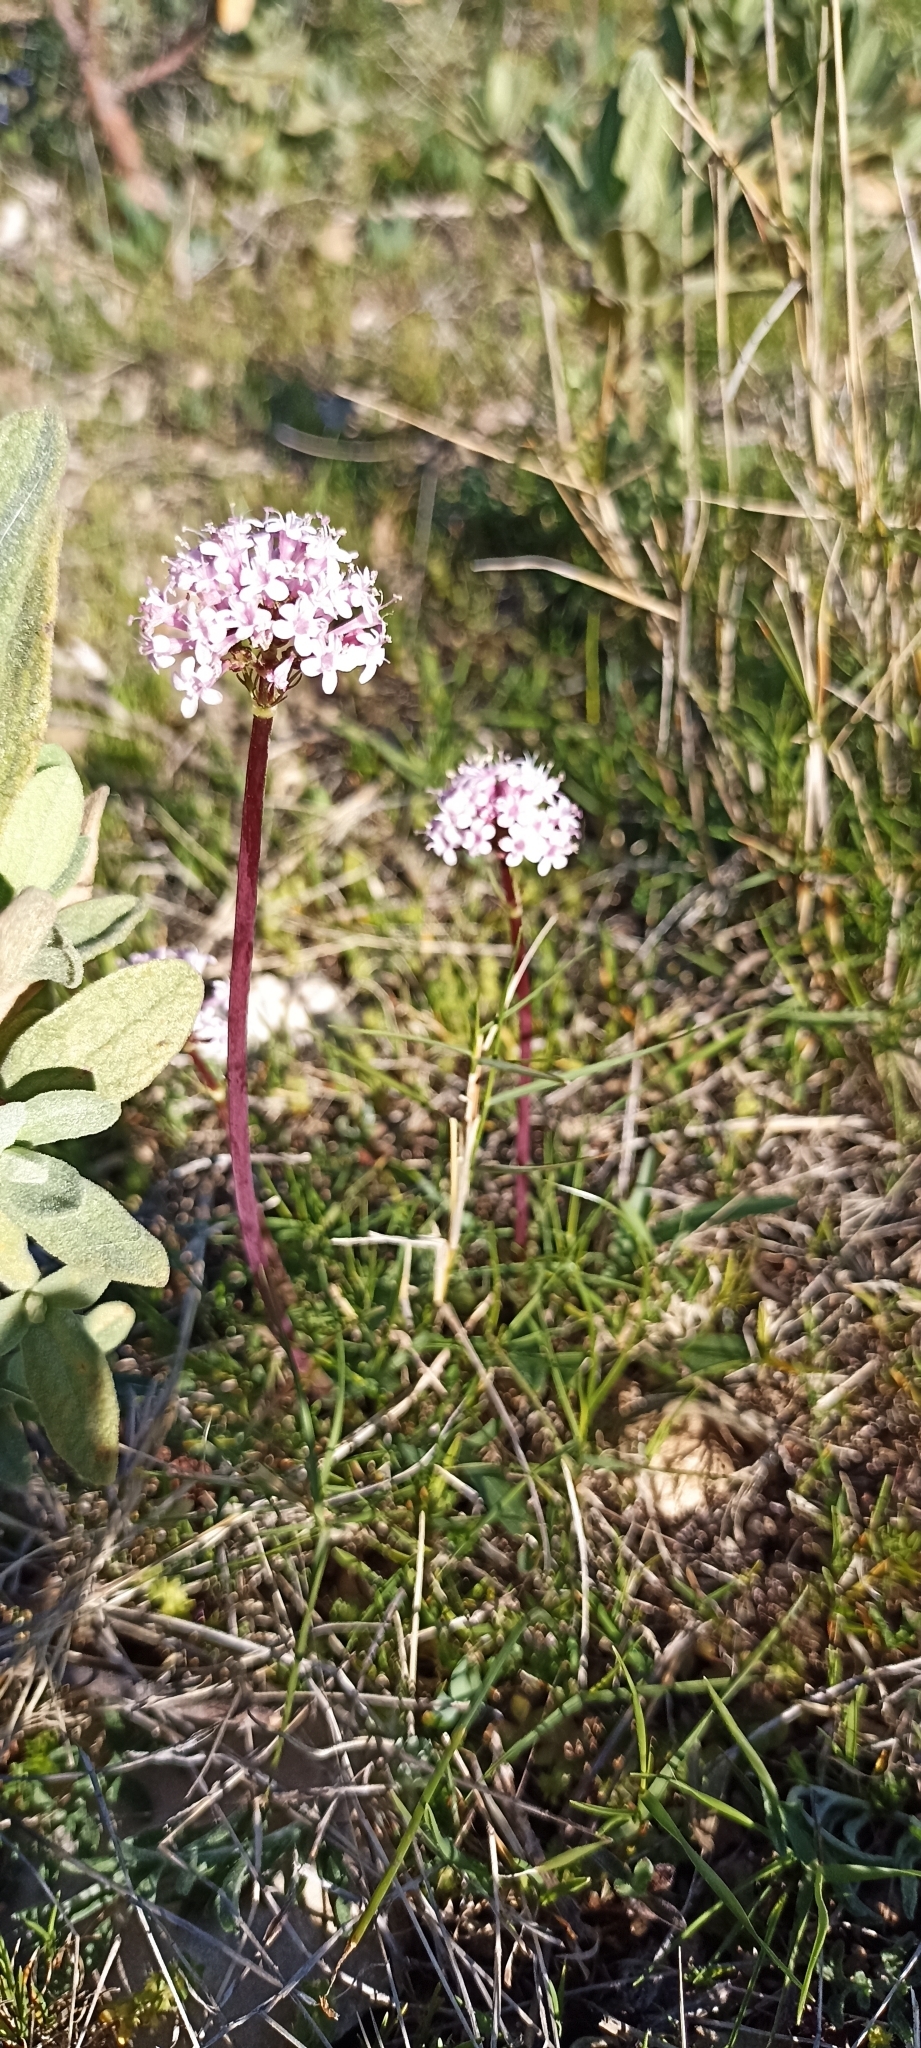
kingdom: Plantae
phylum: Tracheophyta
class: Magnoliopsida
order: Dipsacales
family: Caprifoliaceae
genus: Valeriana
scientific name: Valeriana tuberosa
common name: Tuberous valerian
